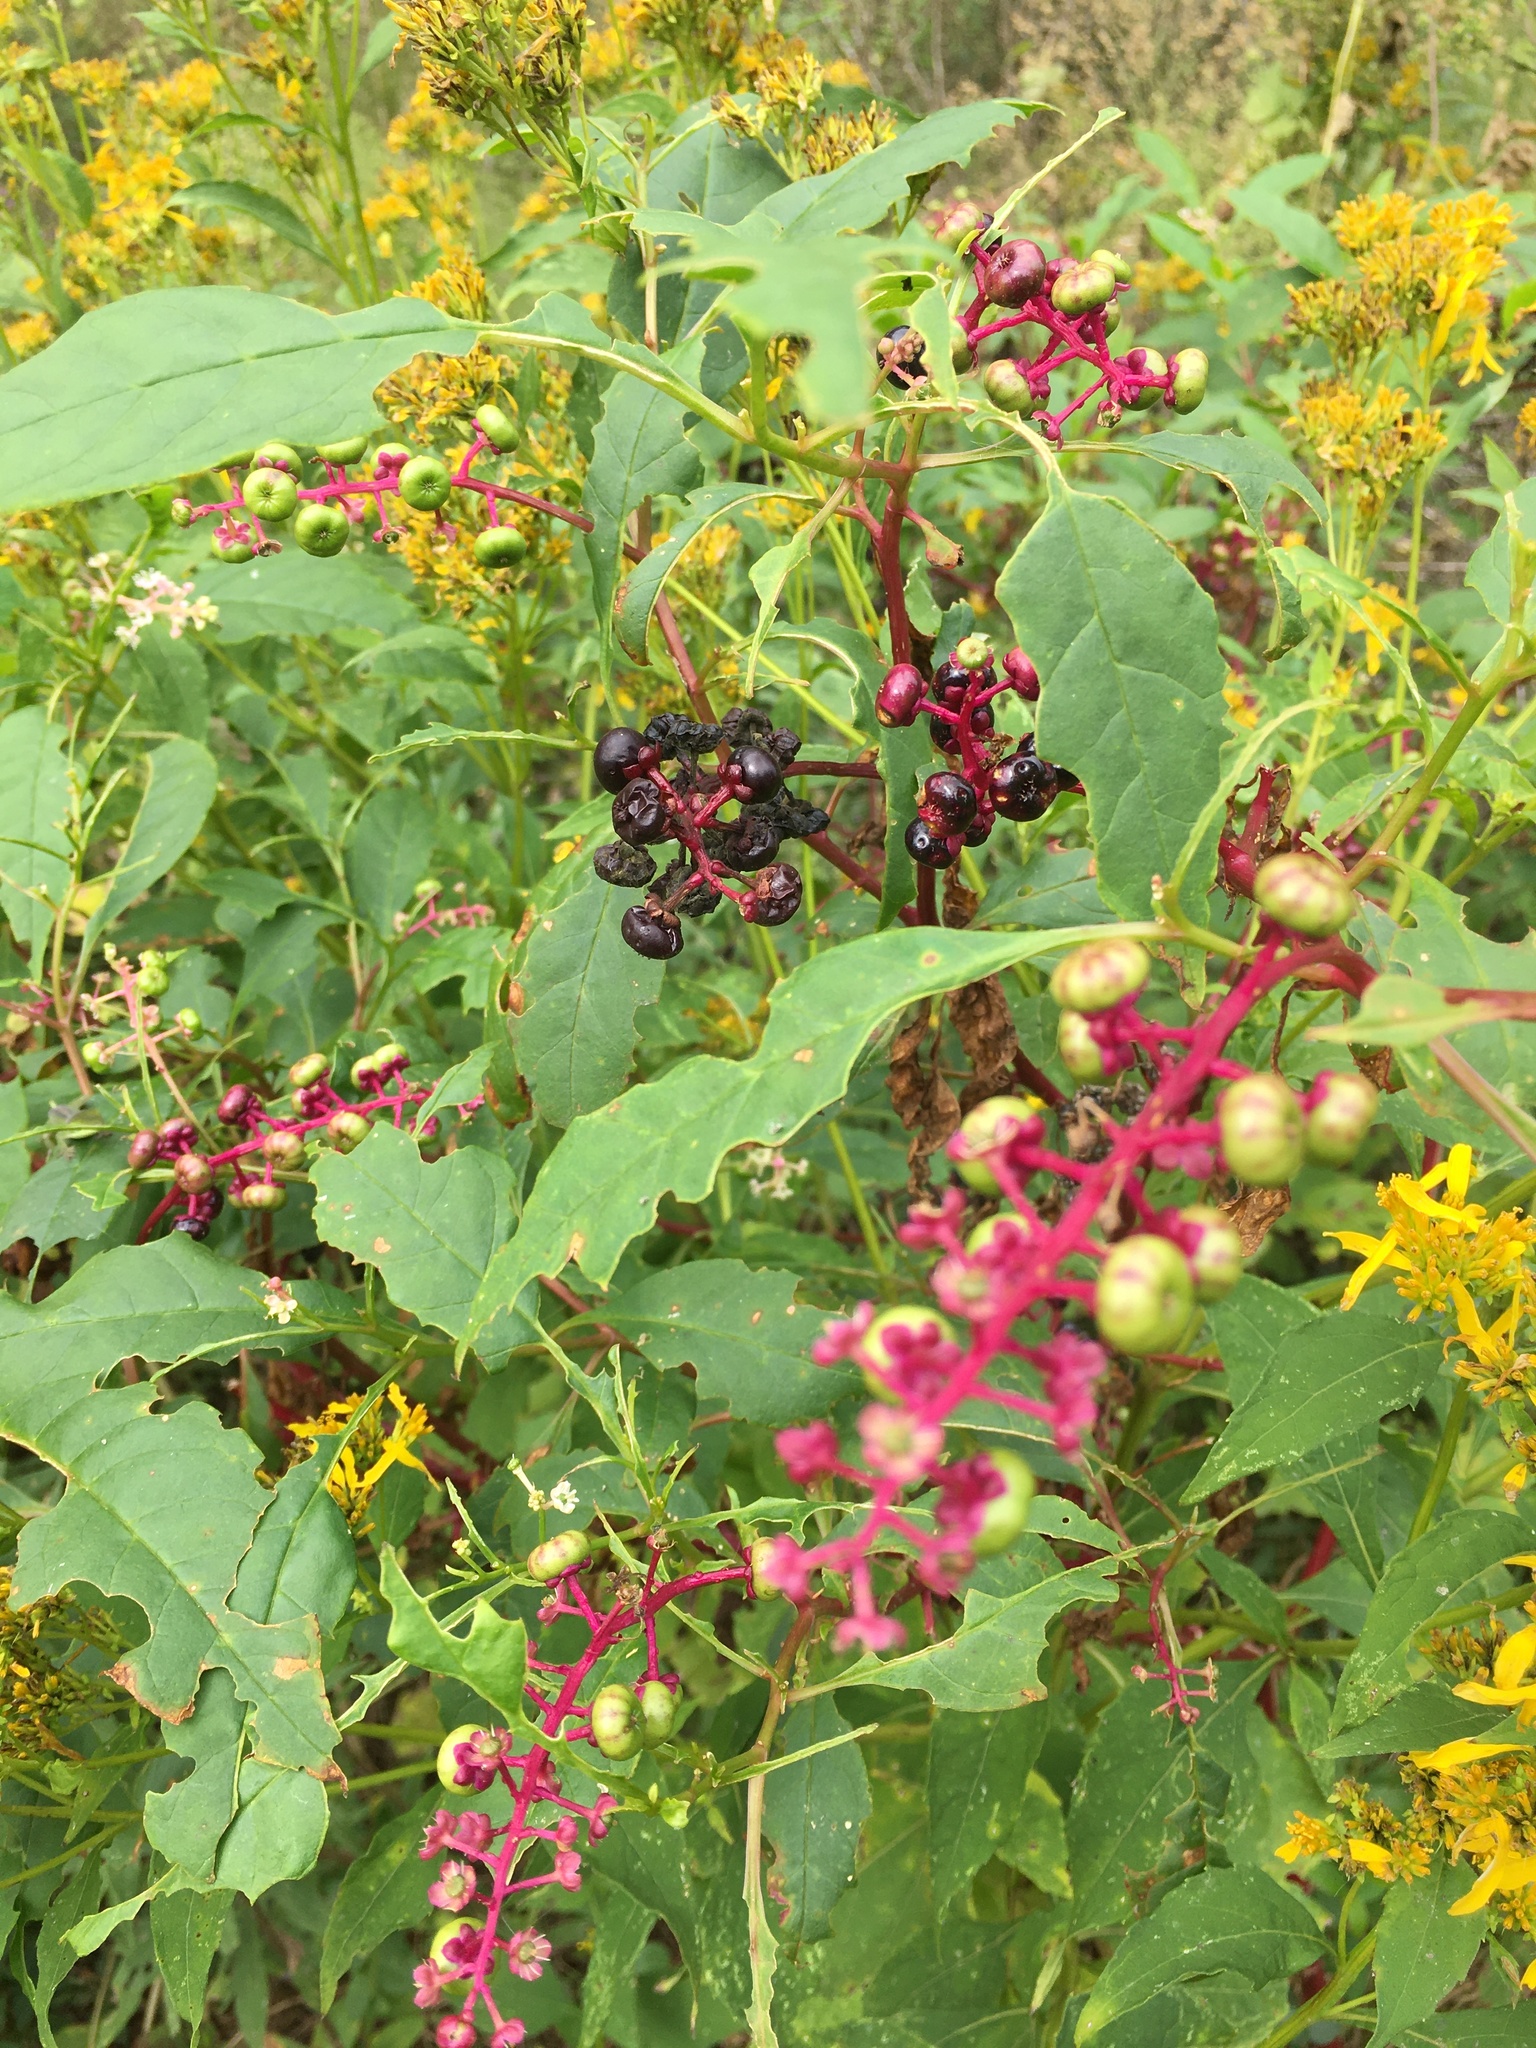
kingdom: Plantae
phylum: Tracheophyta
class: Magnoliopsida
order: Caryophyllales
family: Phytolaccaceae
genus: Phytolacca
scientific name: Phytolacca americana
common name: American pokeweed
